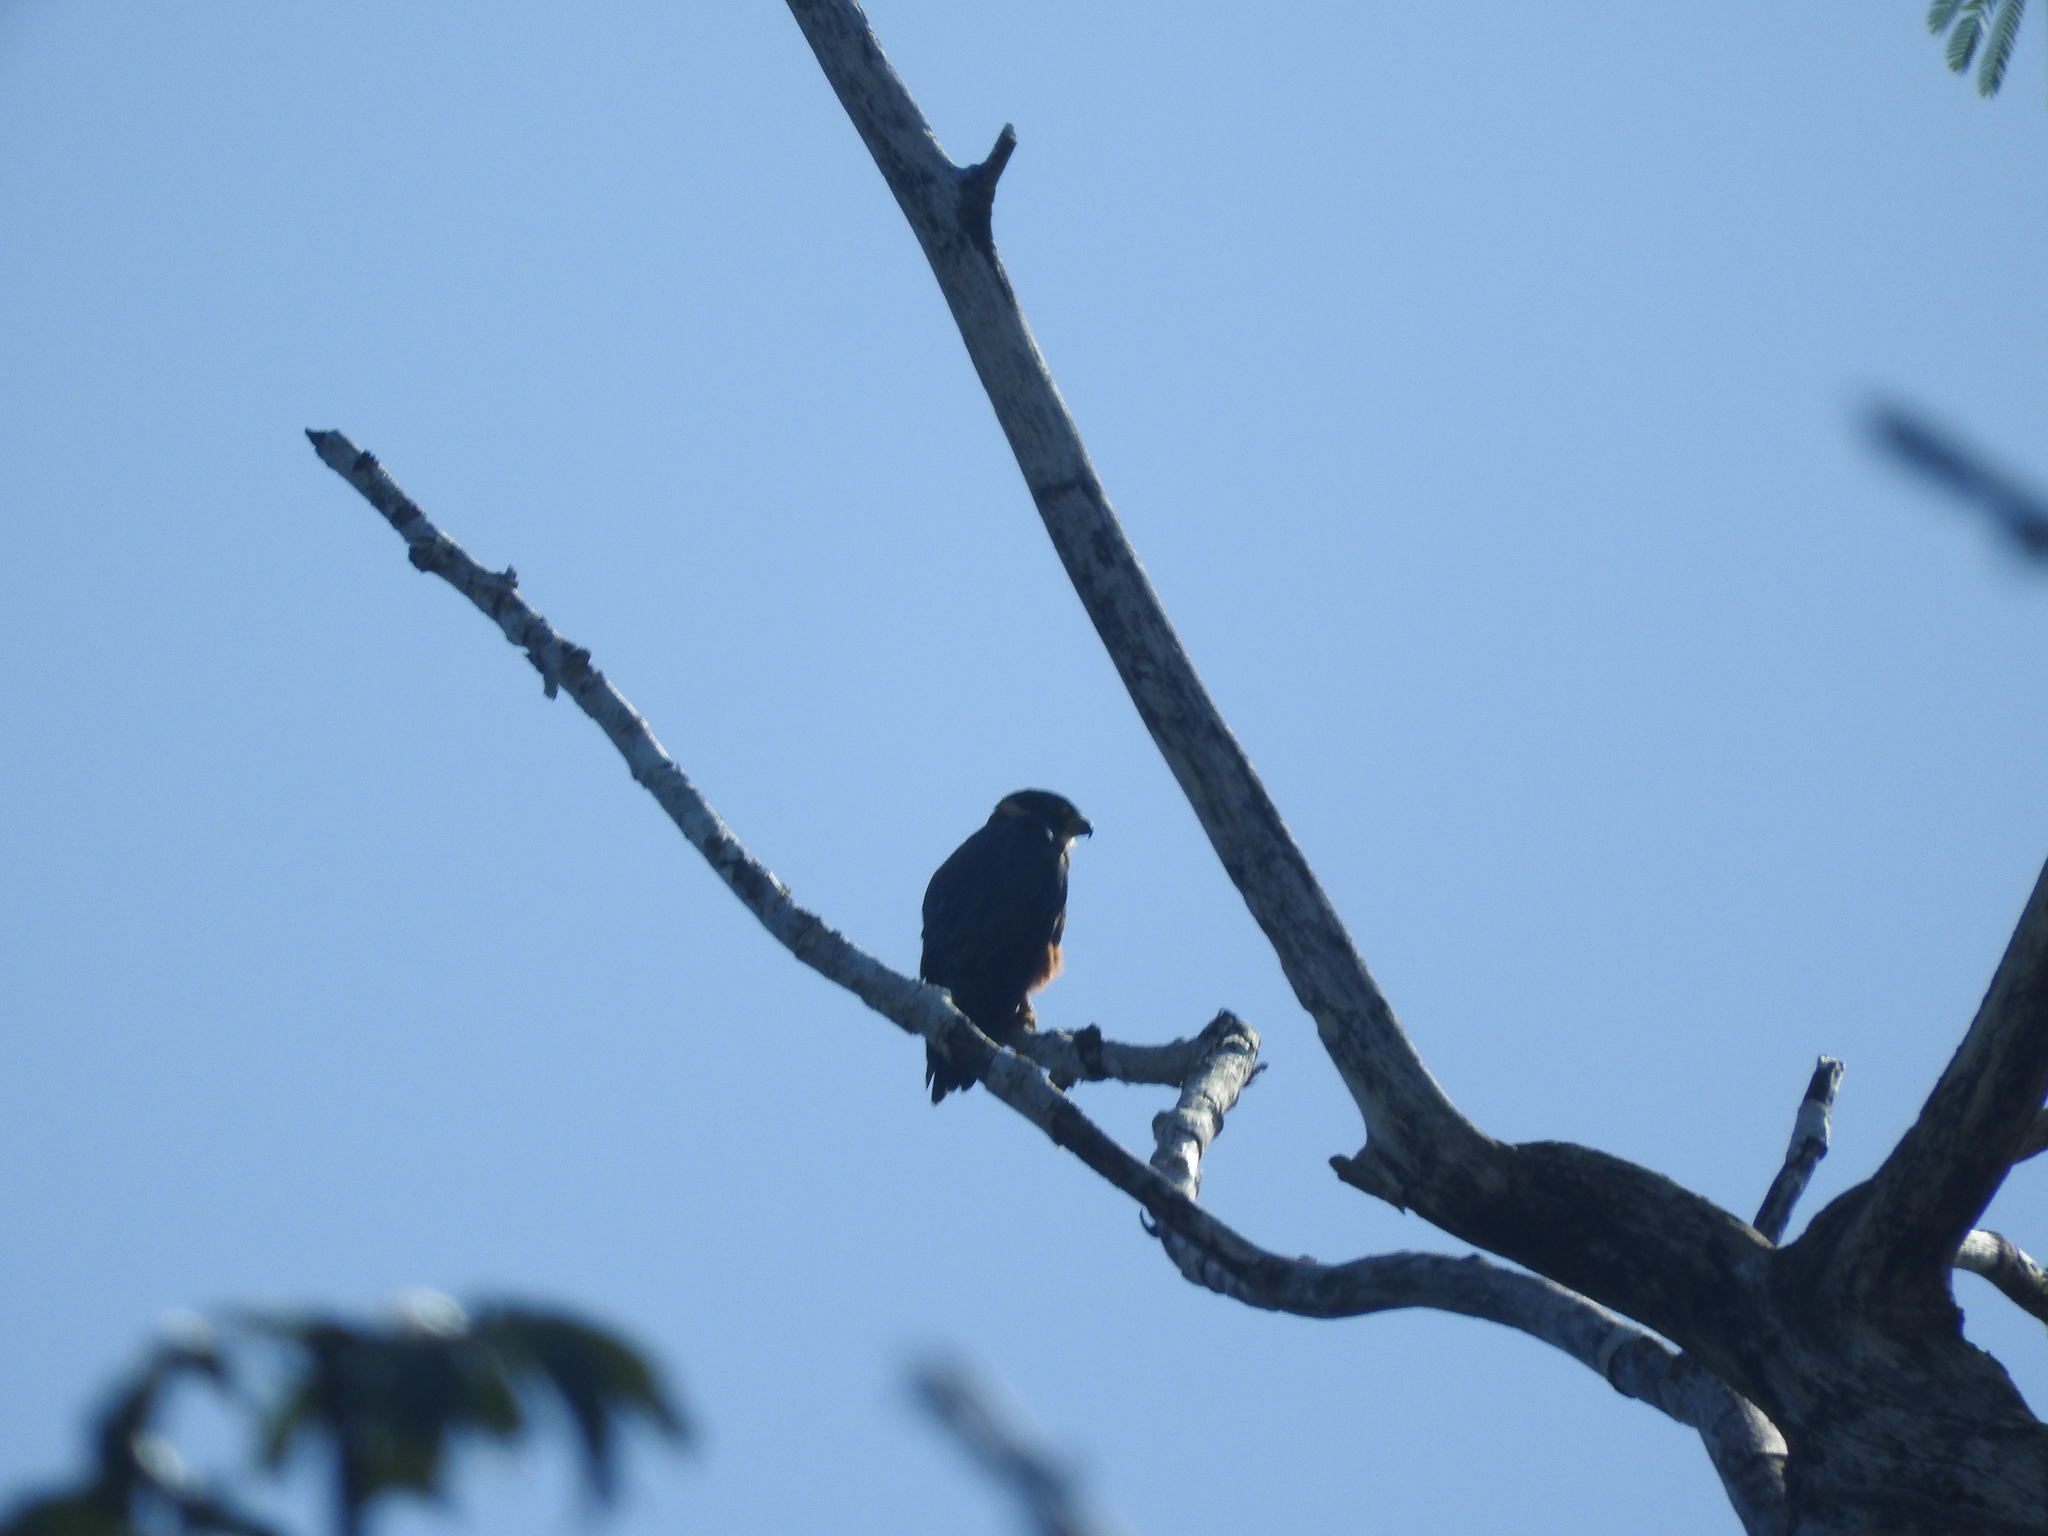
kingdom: Animalia
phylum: Chordata
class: Aves
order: Falconiformes
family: Falconidae
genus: Falco
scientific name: Falco rufigularis
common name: Bat falcon
